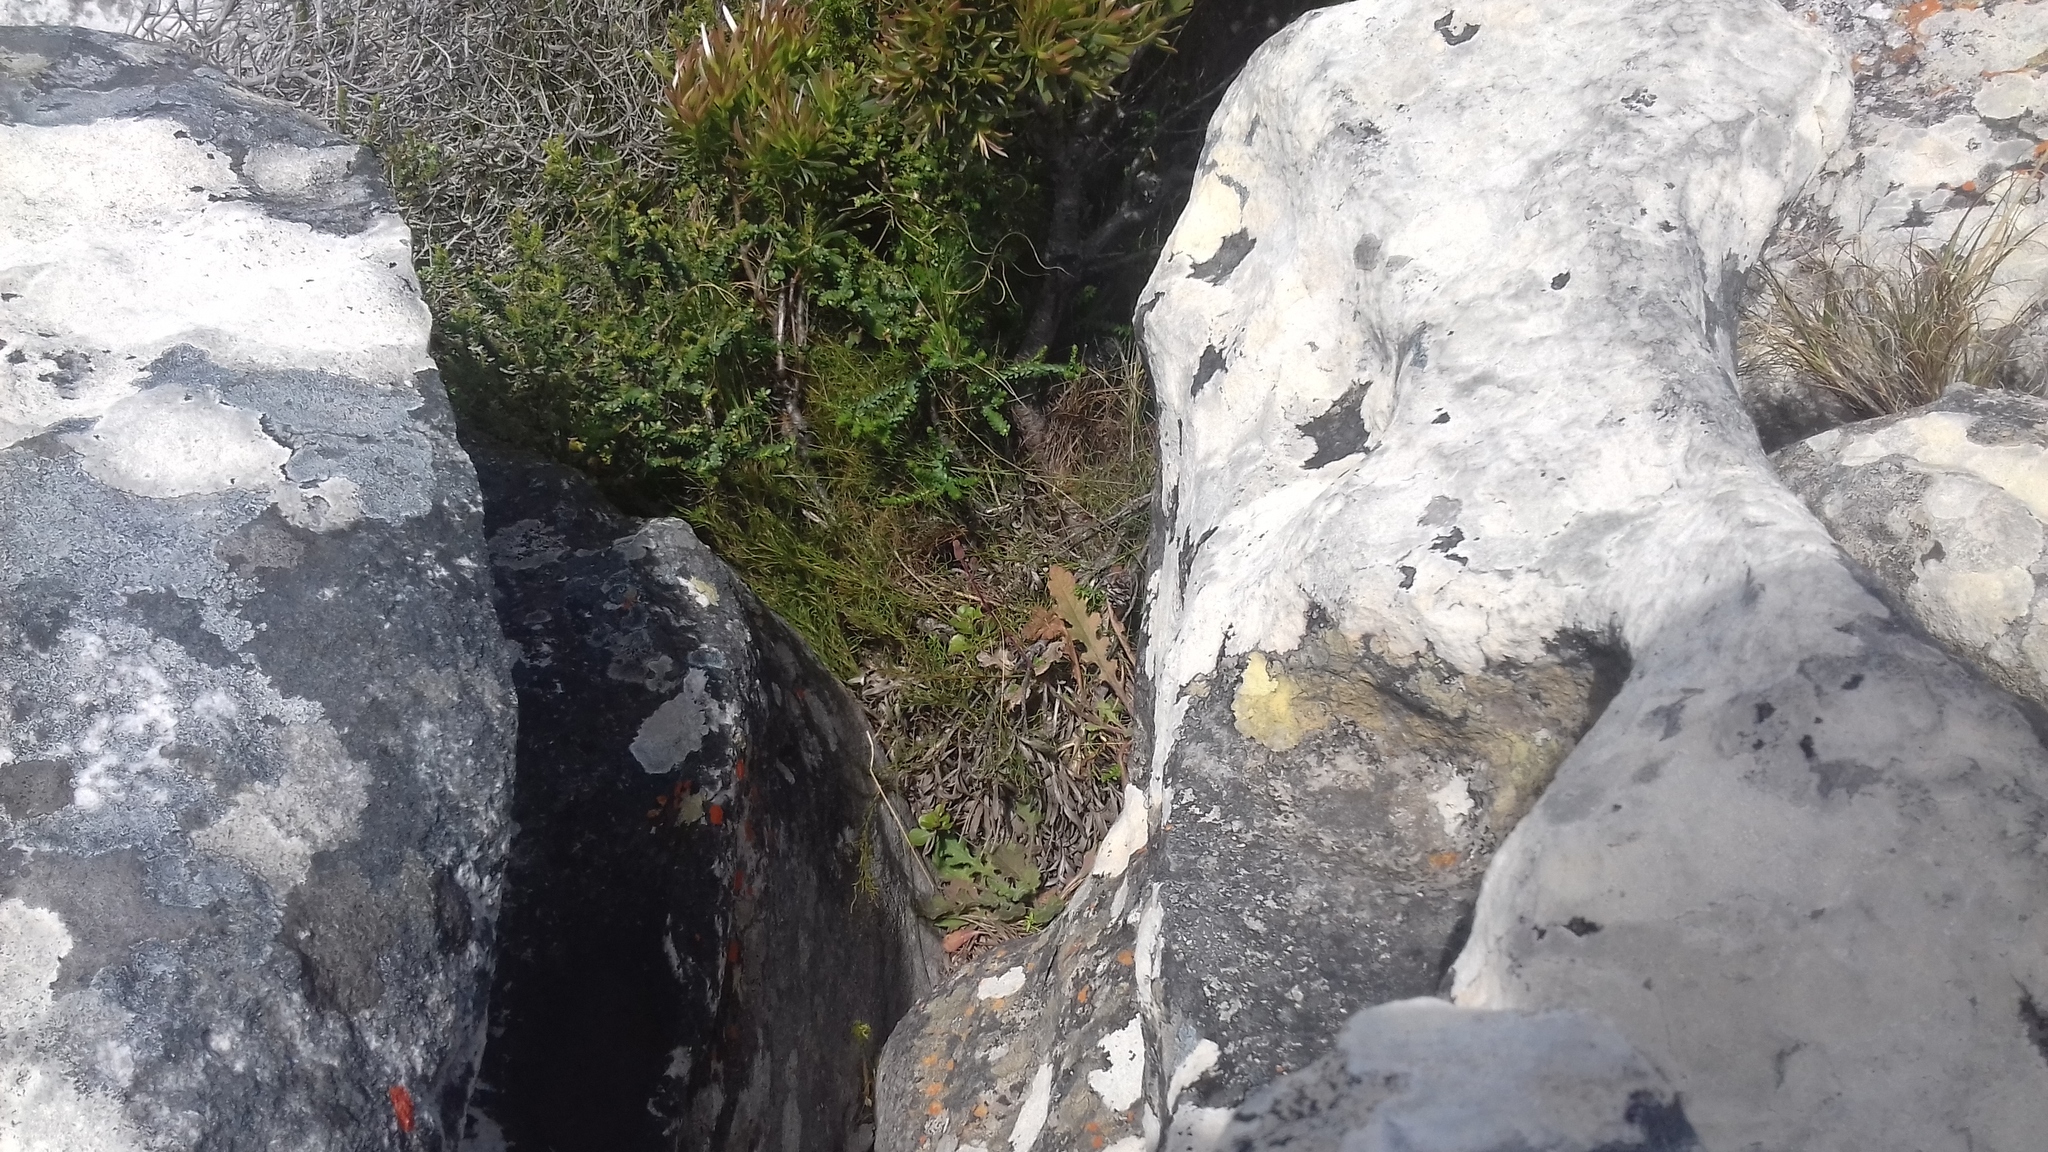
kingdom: Plantae
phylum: Tracheophyta
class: Magnoliopsida
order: Asterales
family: Asteraceae
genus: Senecio
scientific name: Senecio hastatus
